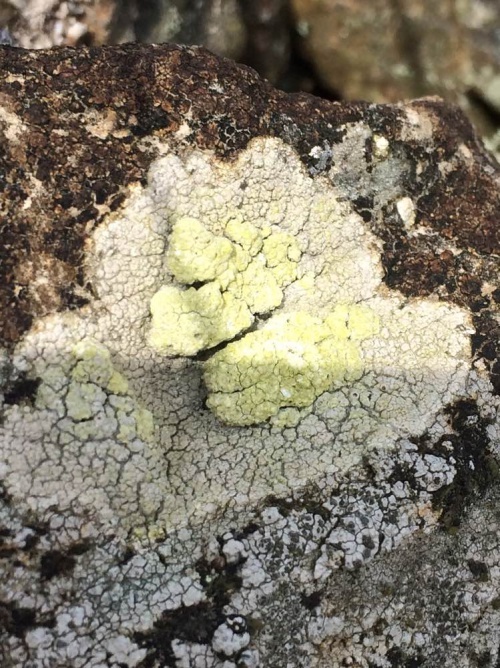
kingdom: Fungi
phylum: Ascomycota
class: Lecanoromycetes
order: Ostropales
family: Graphidaceae
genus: Diploschistes
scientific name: Diploschistes scruposus
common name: Crater lichen
